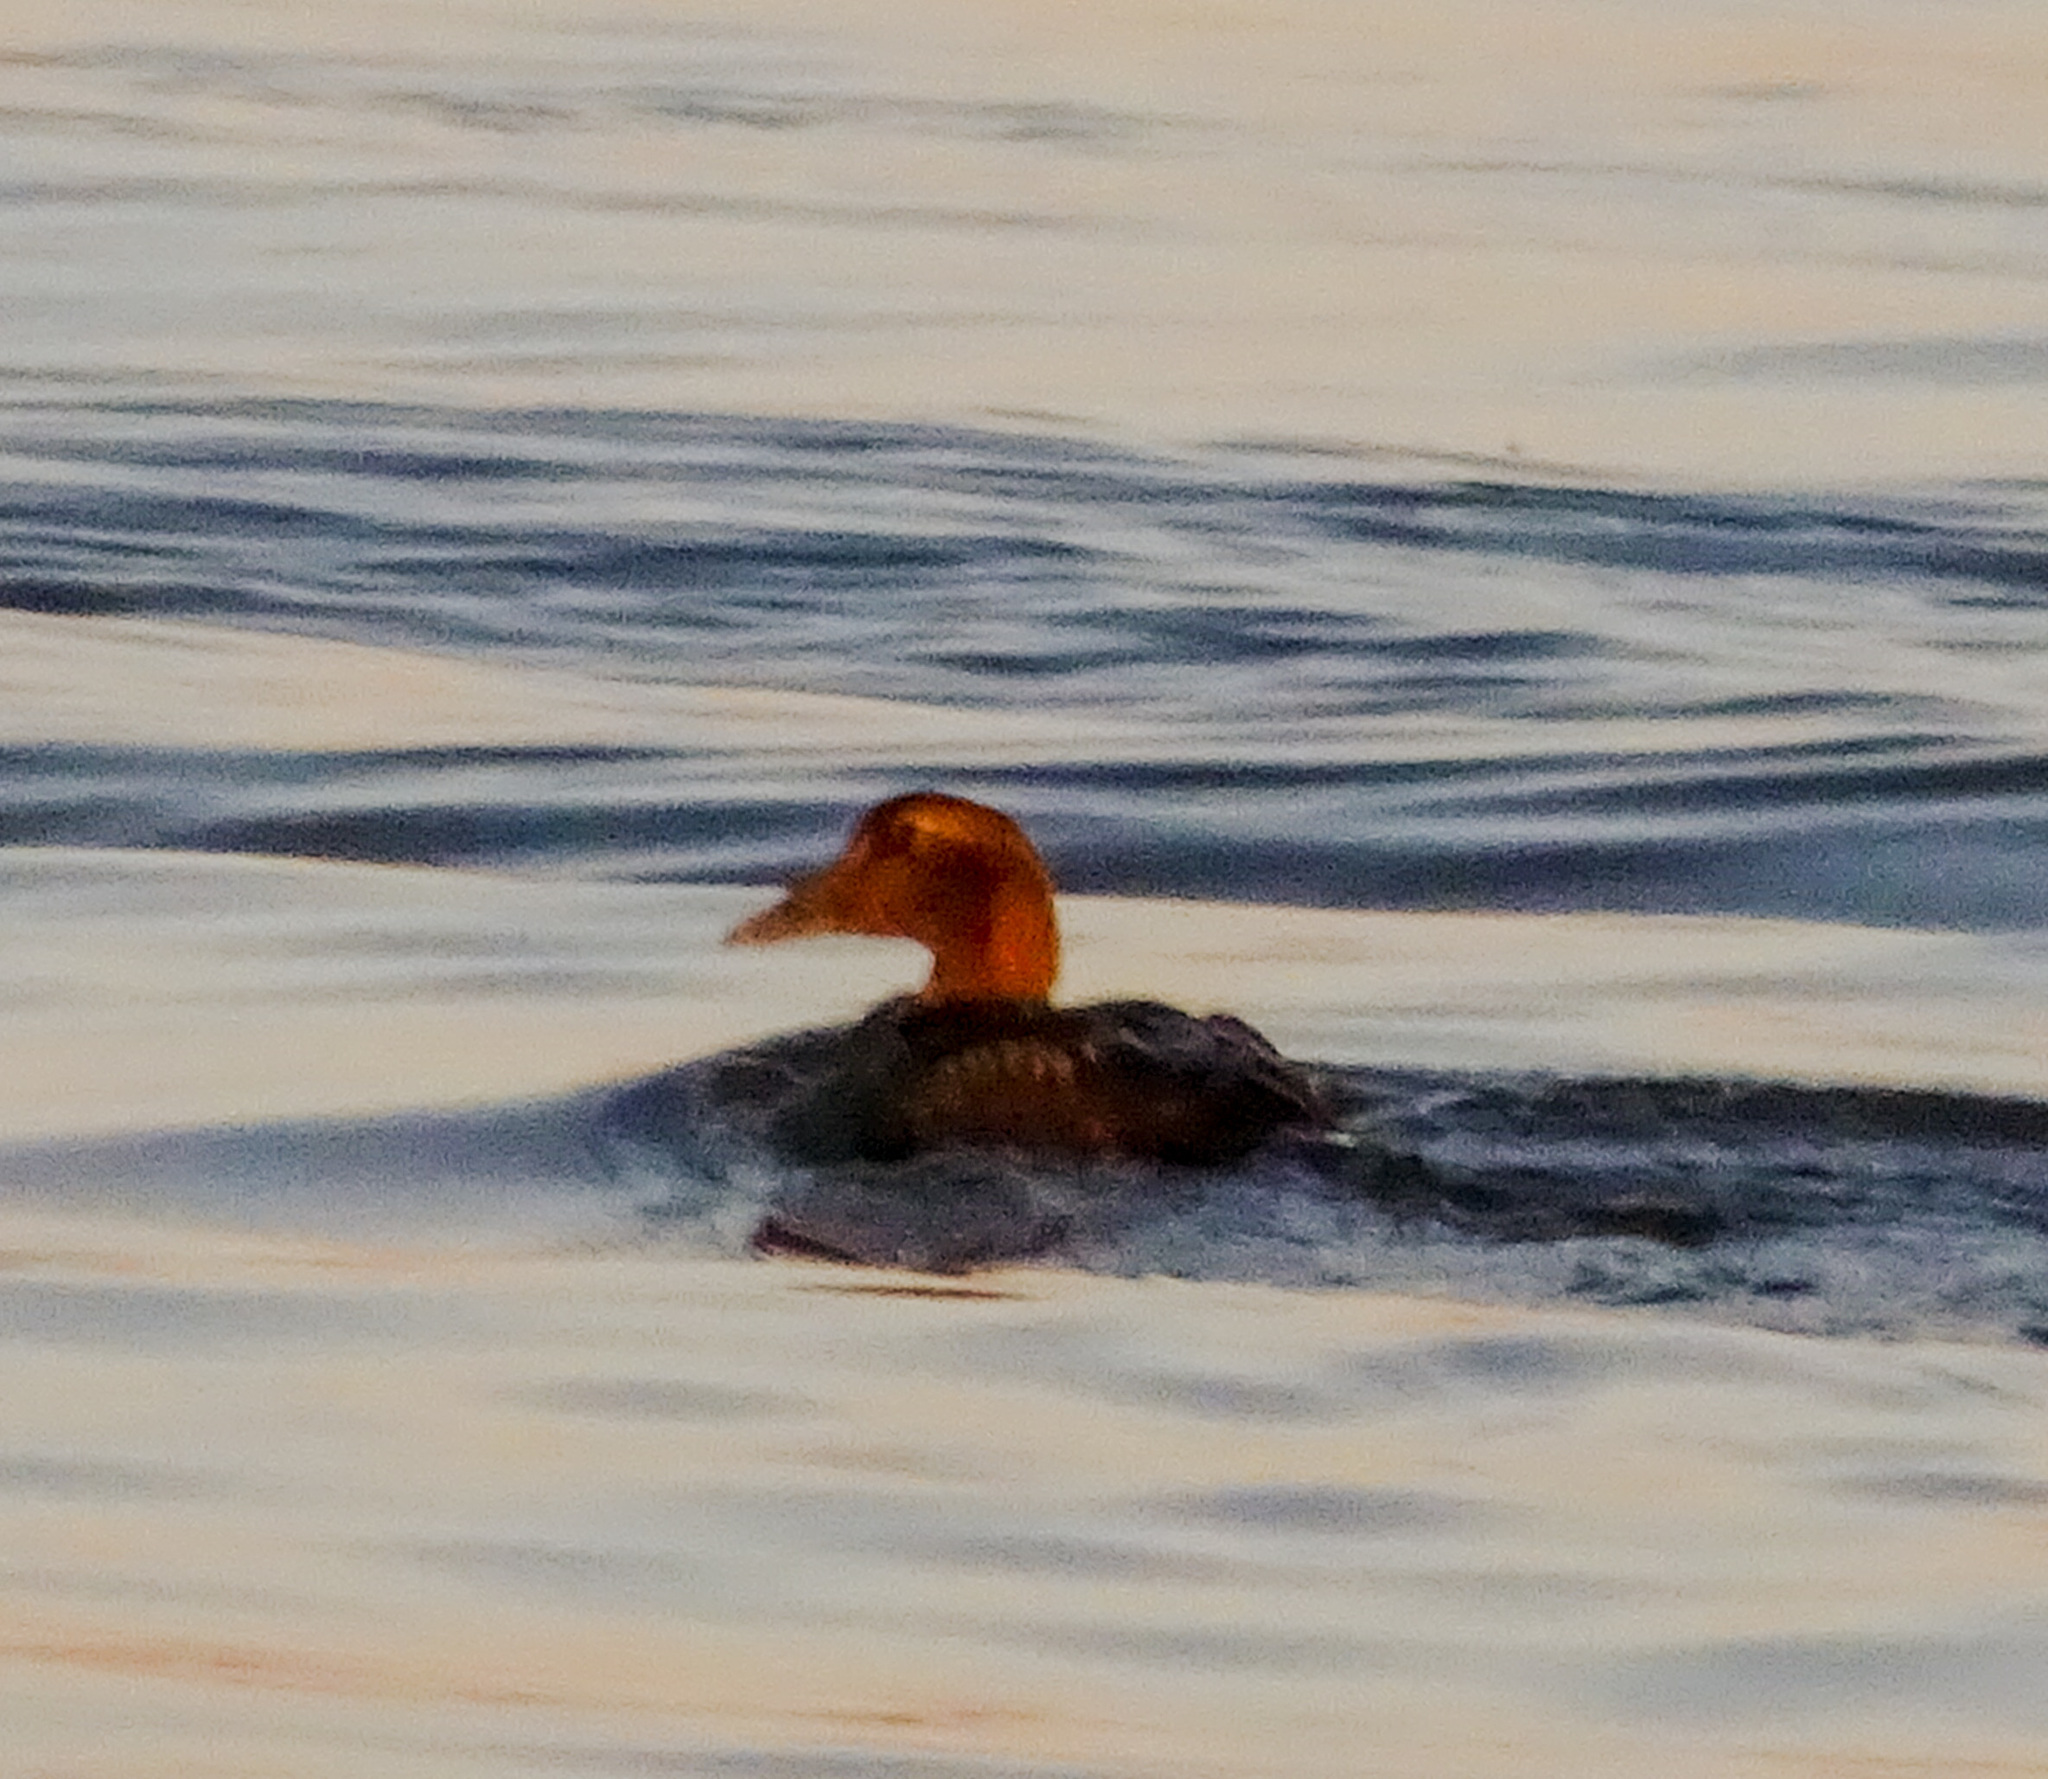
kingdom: Animalia
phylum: Chordata
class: Aves
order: Anseriformes
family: Anatidae
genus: Somateria
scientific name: Somateria mollissima
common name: Common eider
